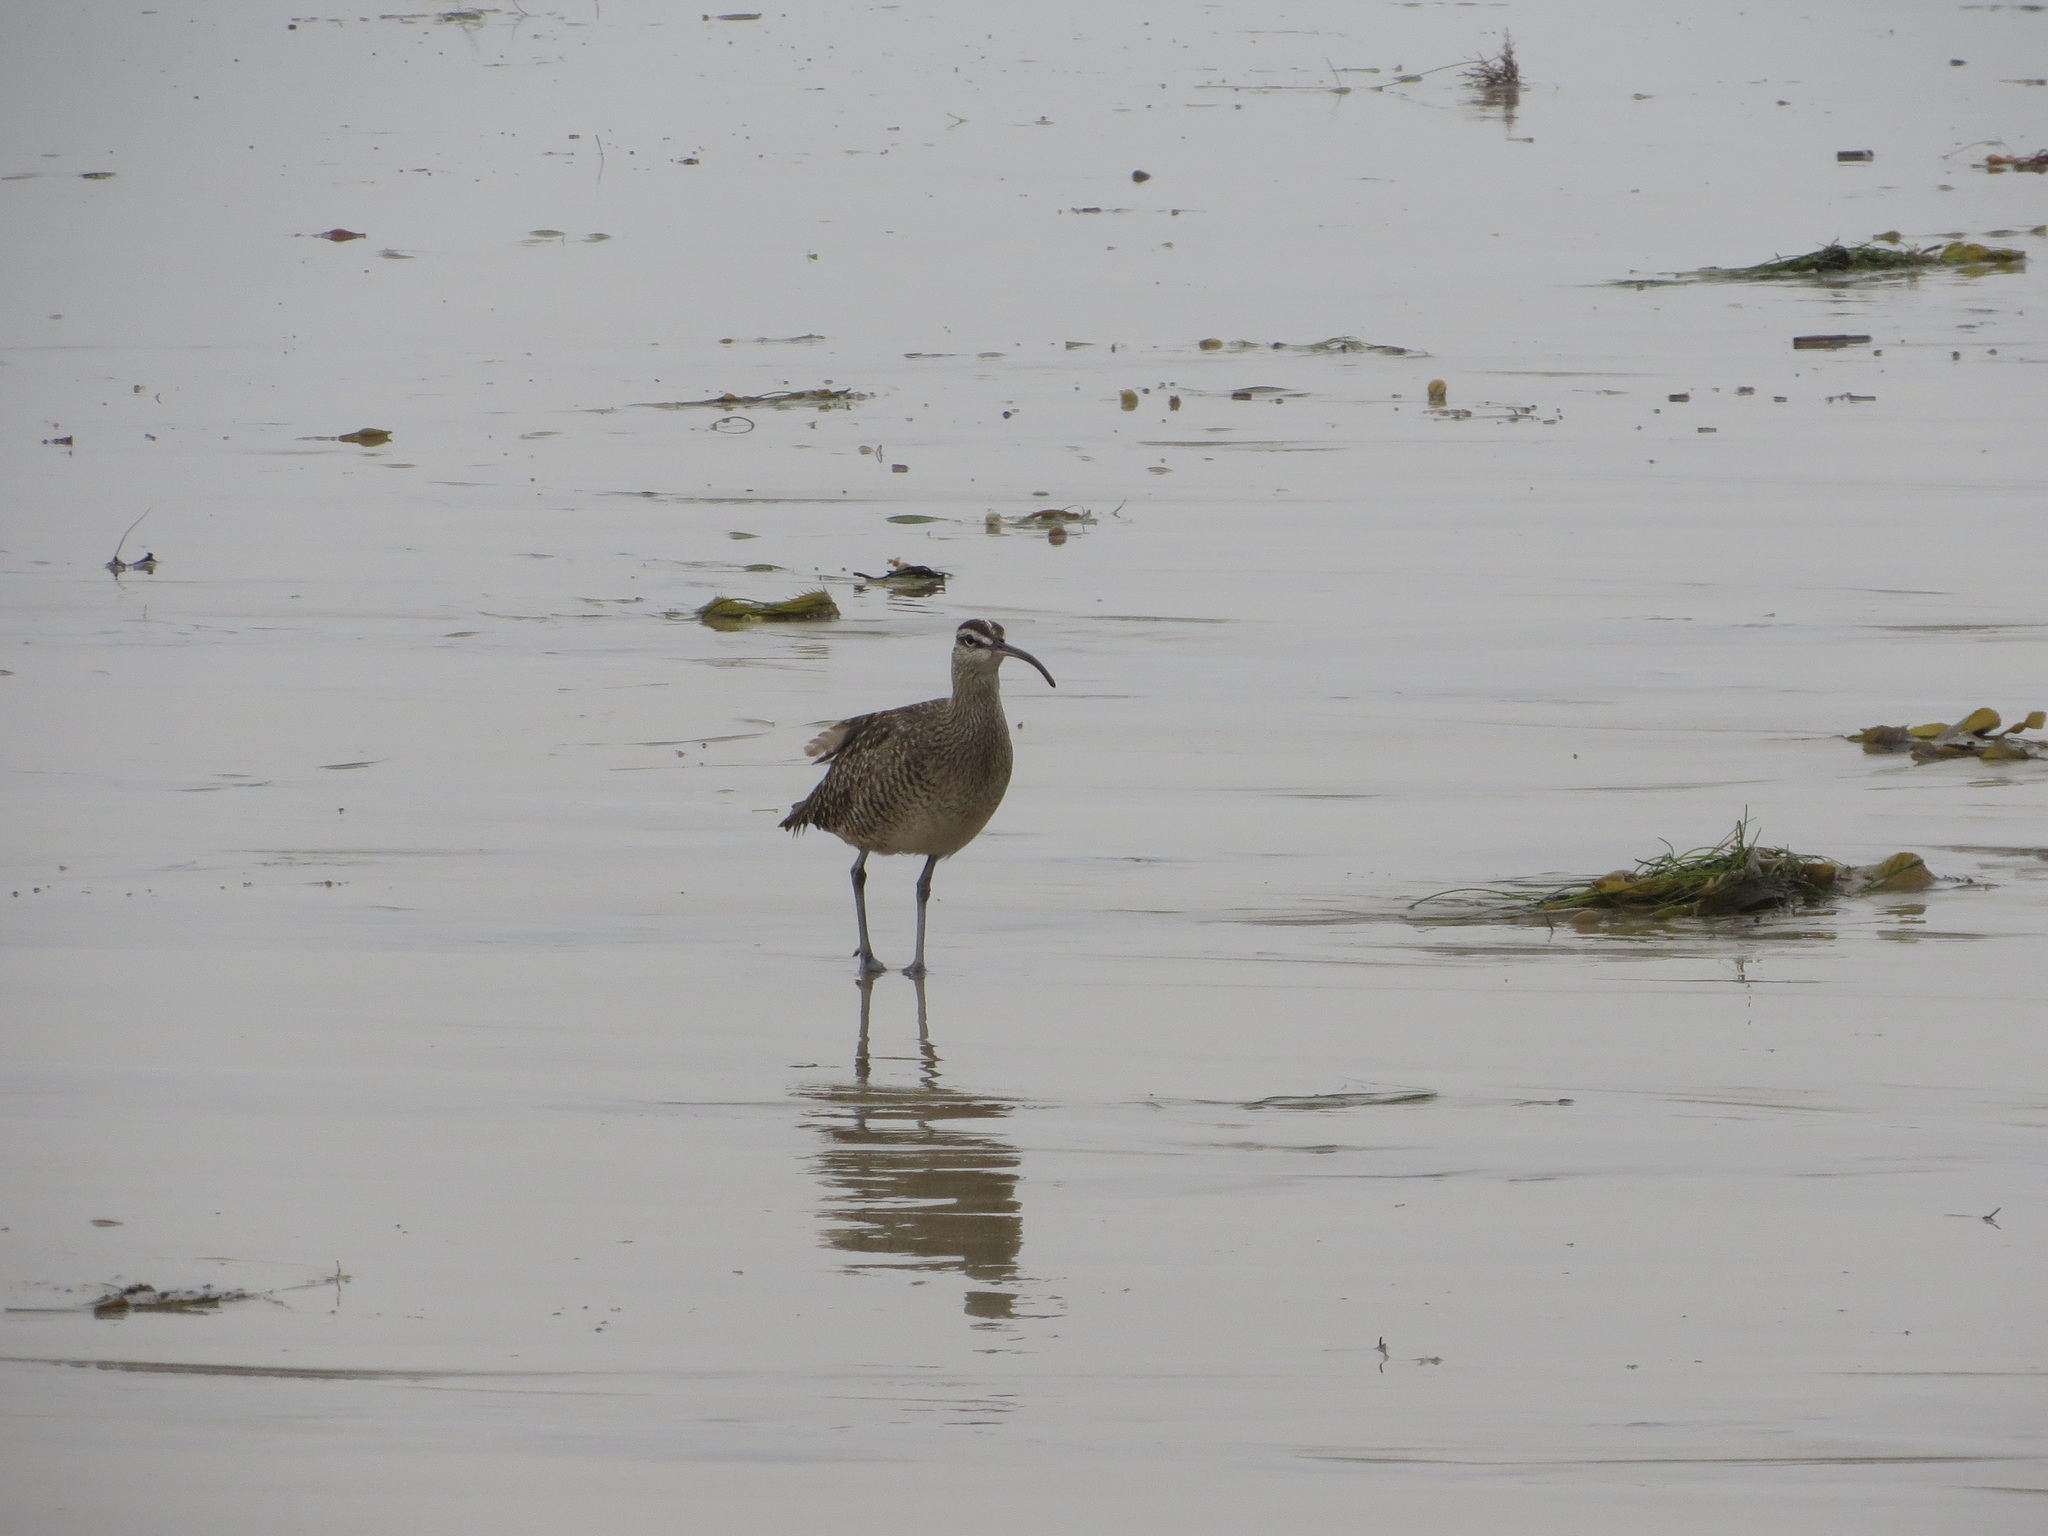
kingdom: Animalia
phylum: Chordata
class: Aves
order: Charadriiformes
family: Scolopacidae
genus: Numenius
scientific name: Numenius phaeopus
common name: Whimbrel
